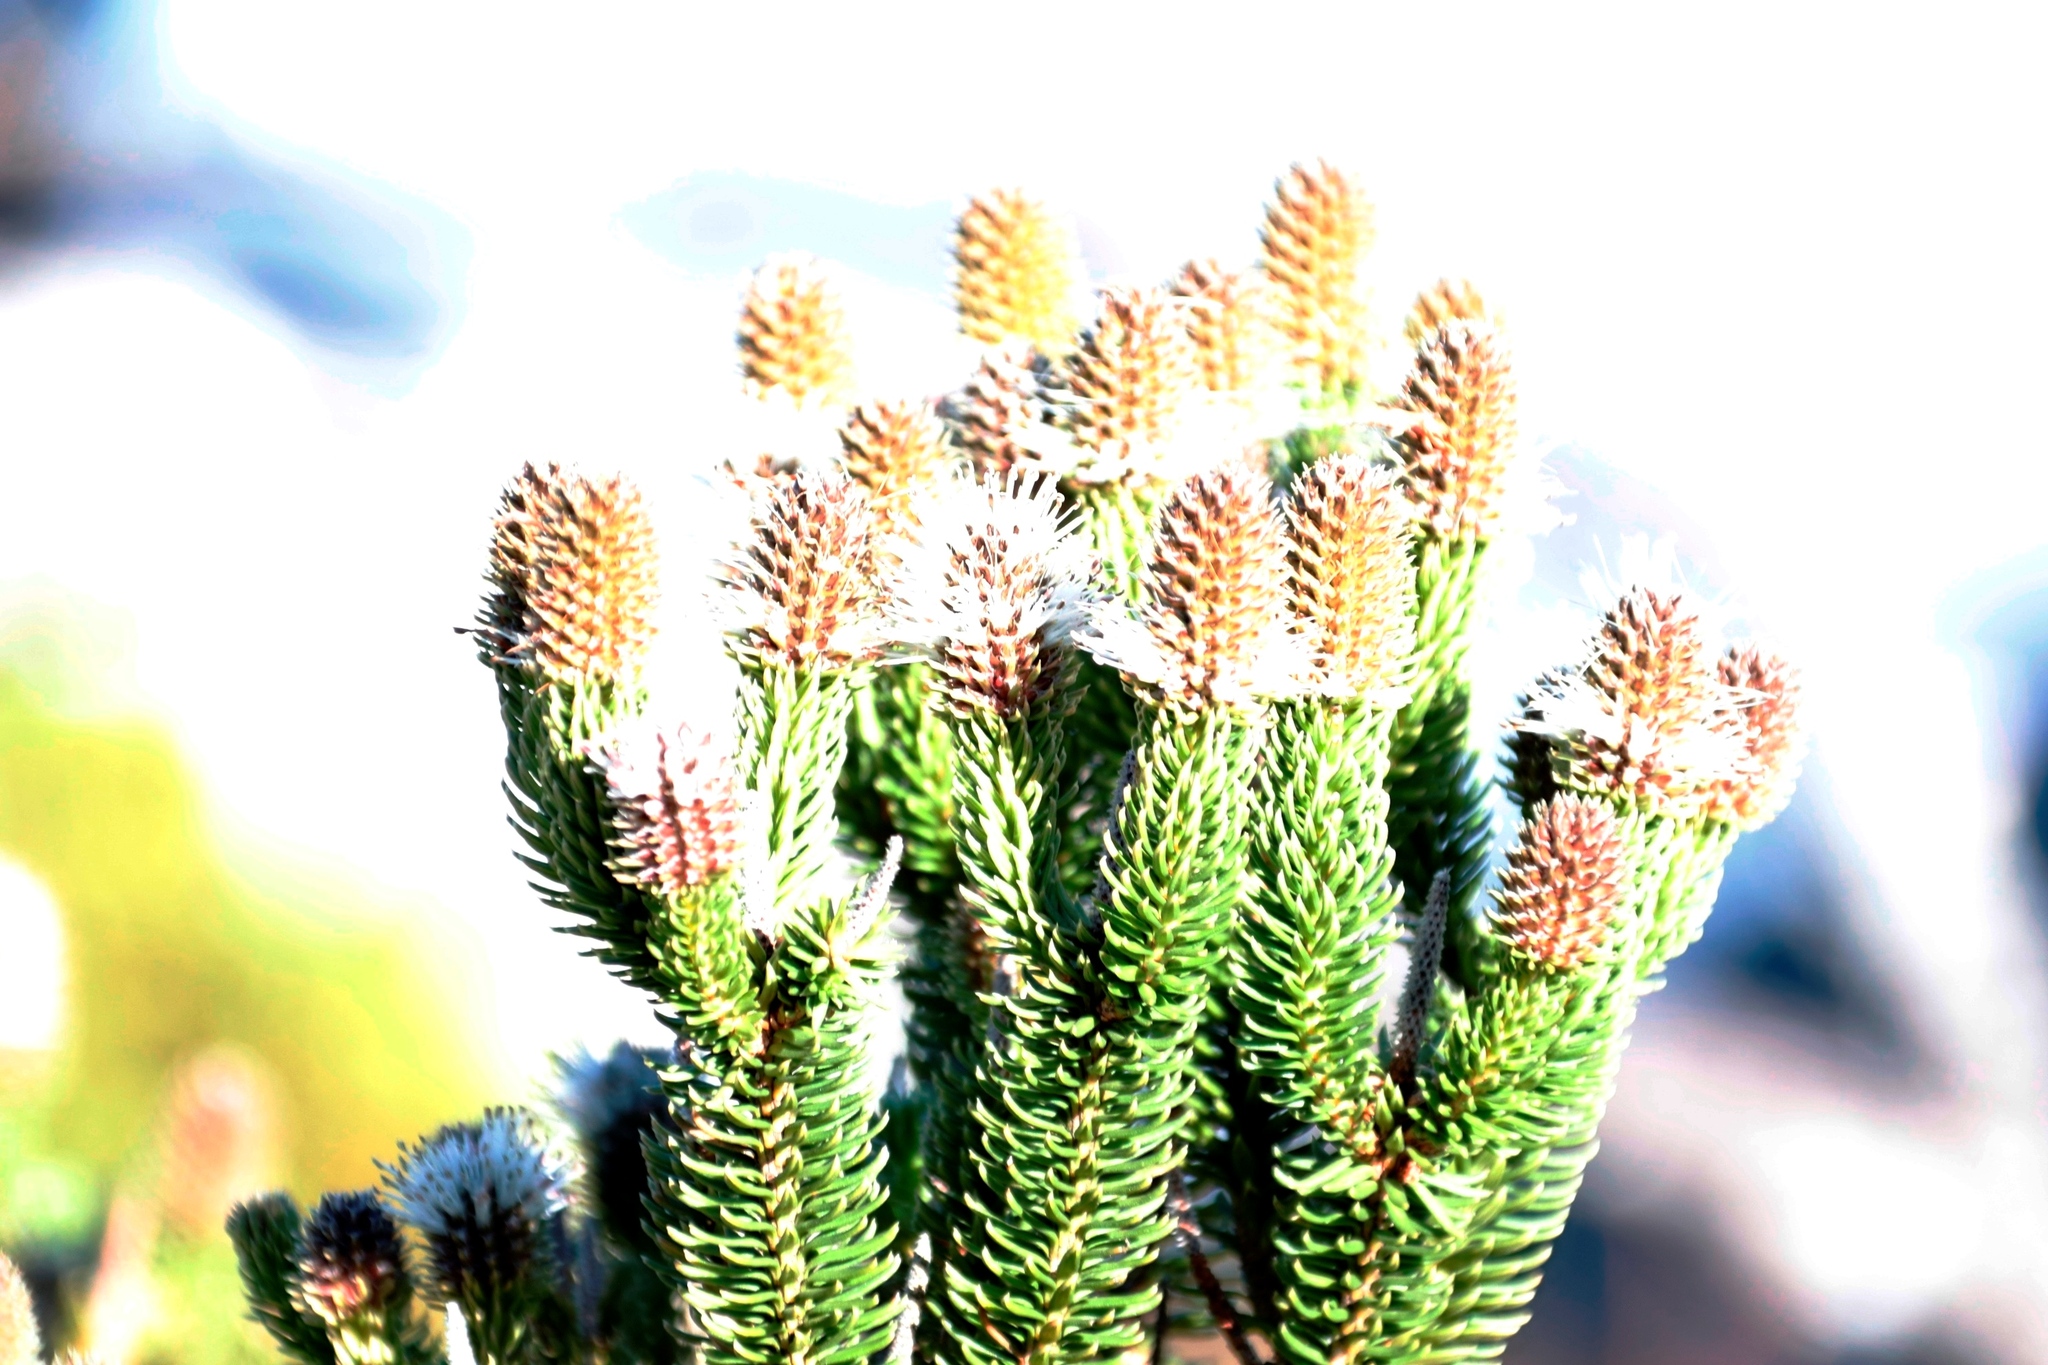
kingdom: Plantae
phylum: Tracheophyta
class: Magnoliopsida
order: Lamiales
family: Stilbaceae
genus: Stilbe
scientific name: Stilbe vestita
